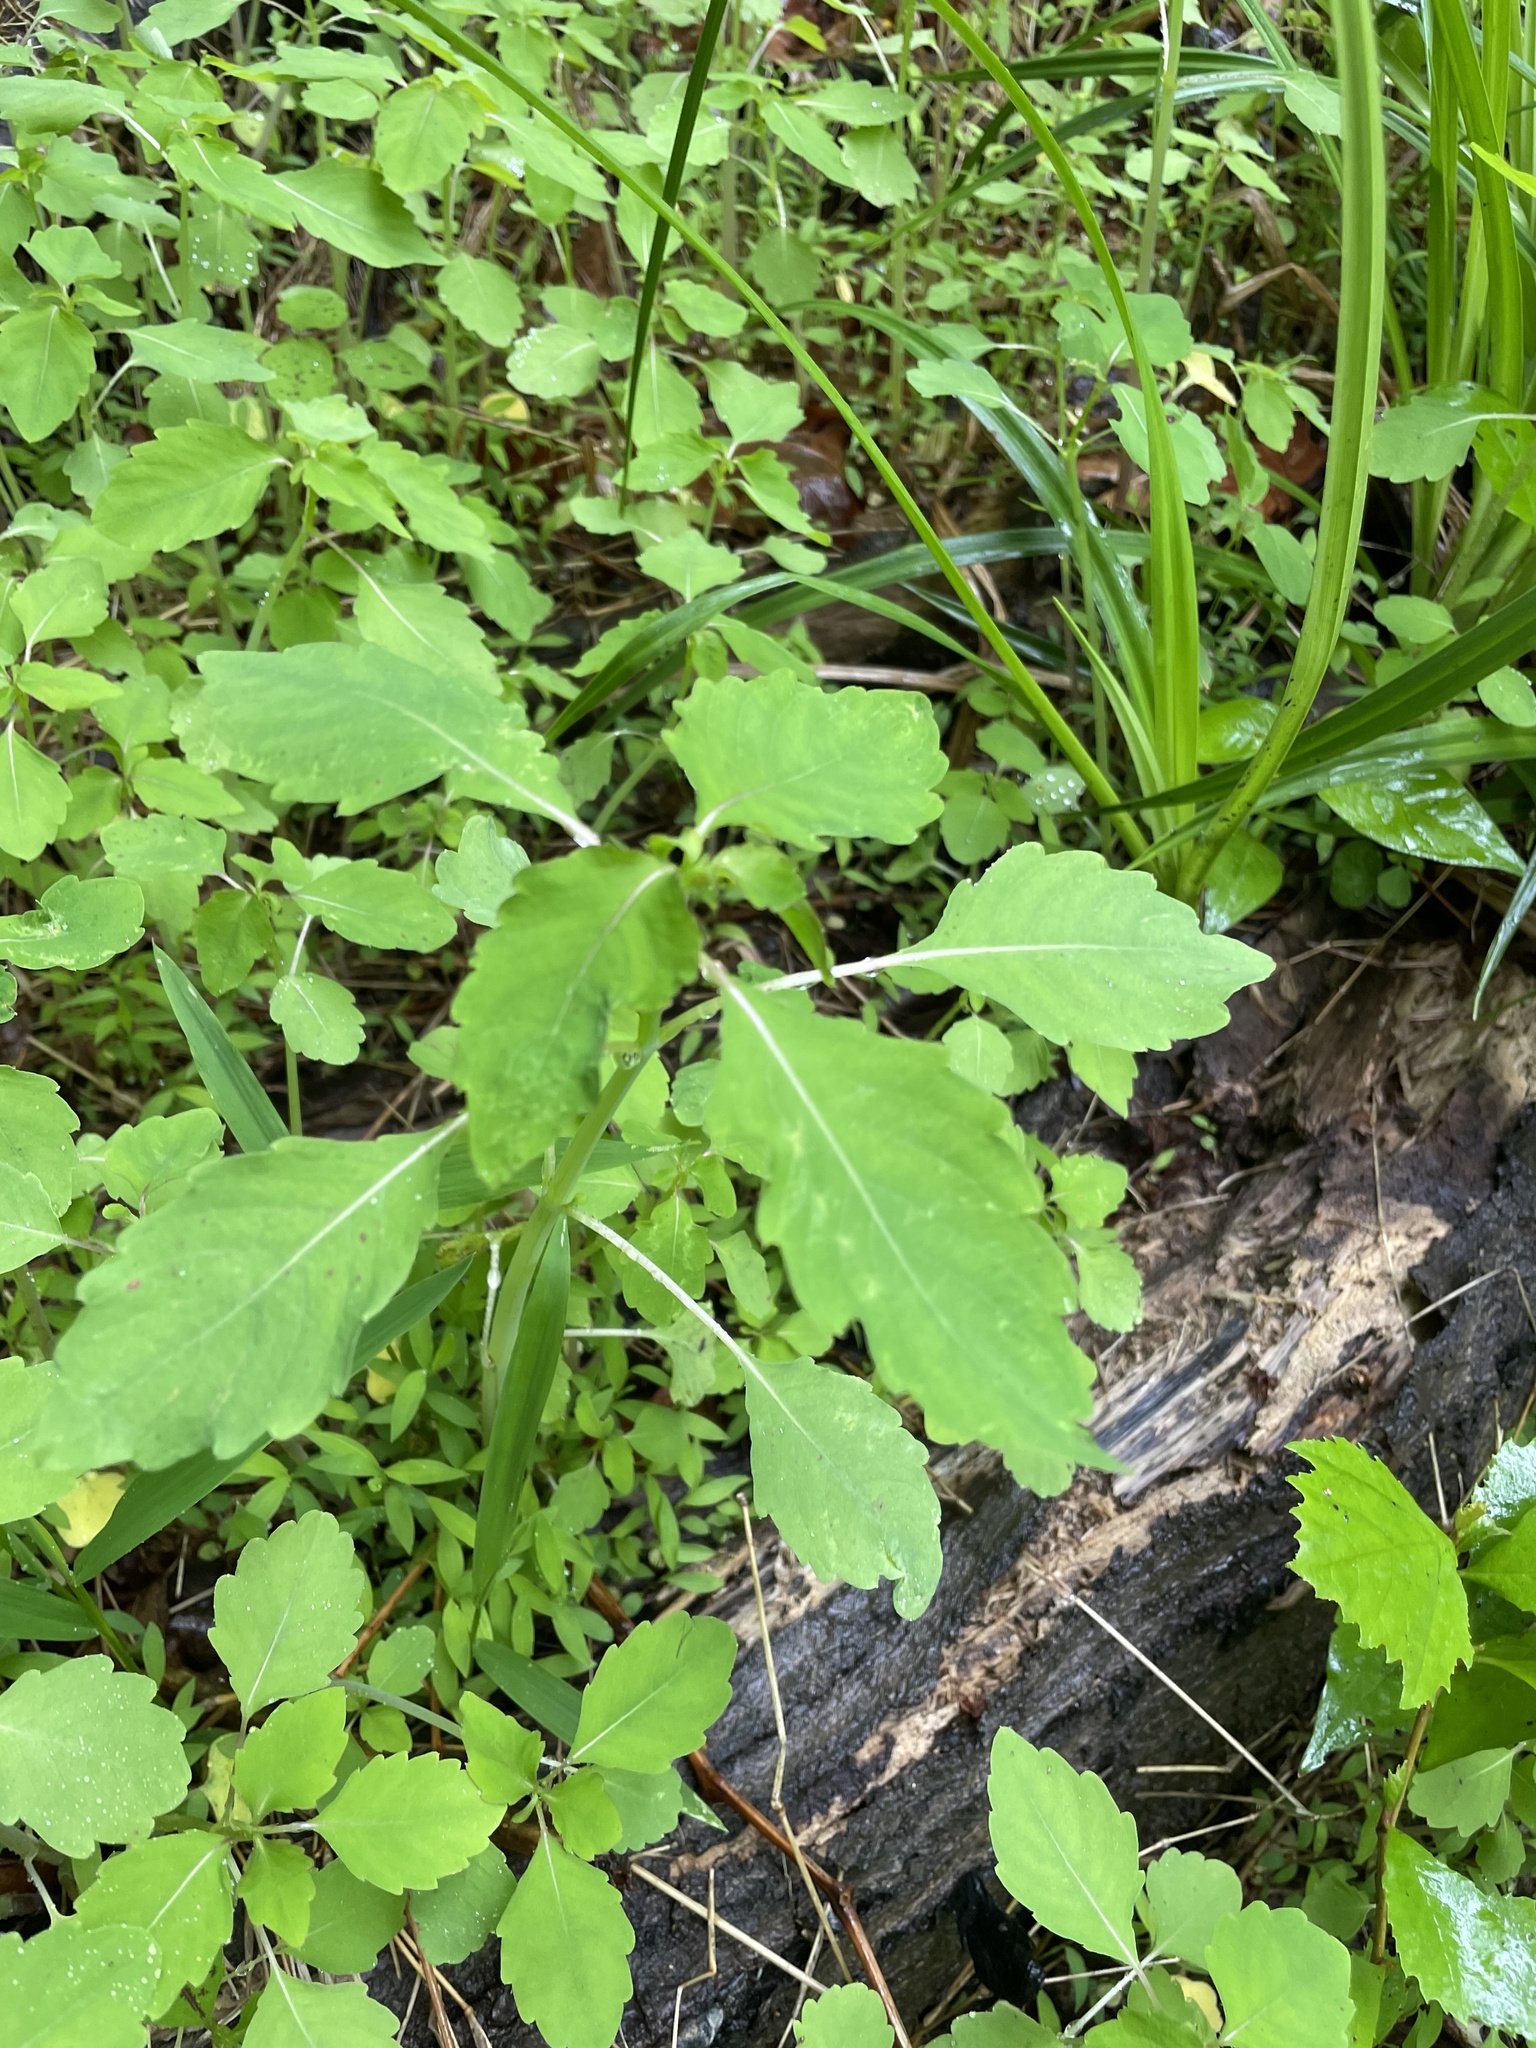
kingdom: Plantae
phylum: Tracheophyta
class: Magnoliopsida
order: Ericales
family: Balsaminaceae
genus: Impatiens
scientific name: Impatiens capensis
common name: Orange balsam
